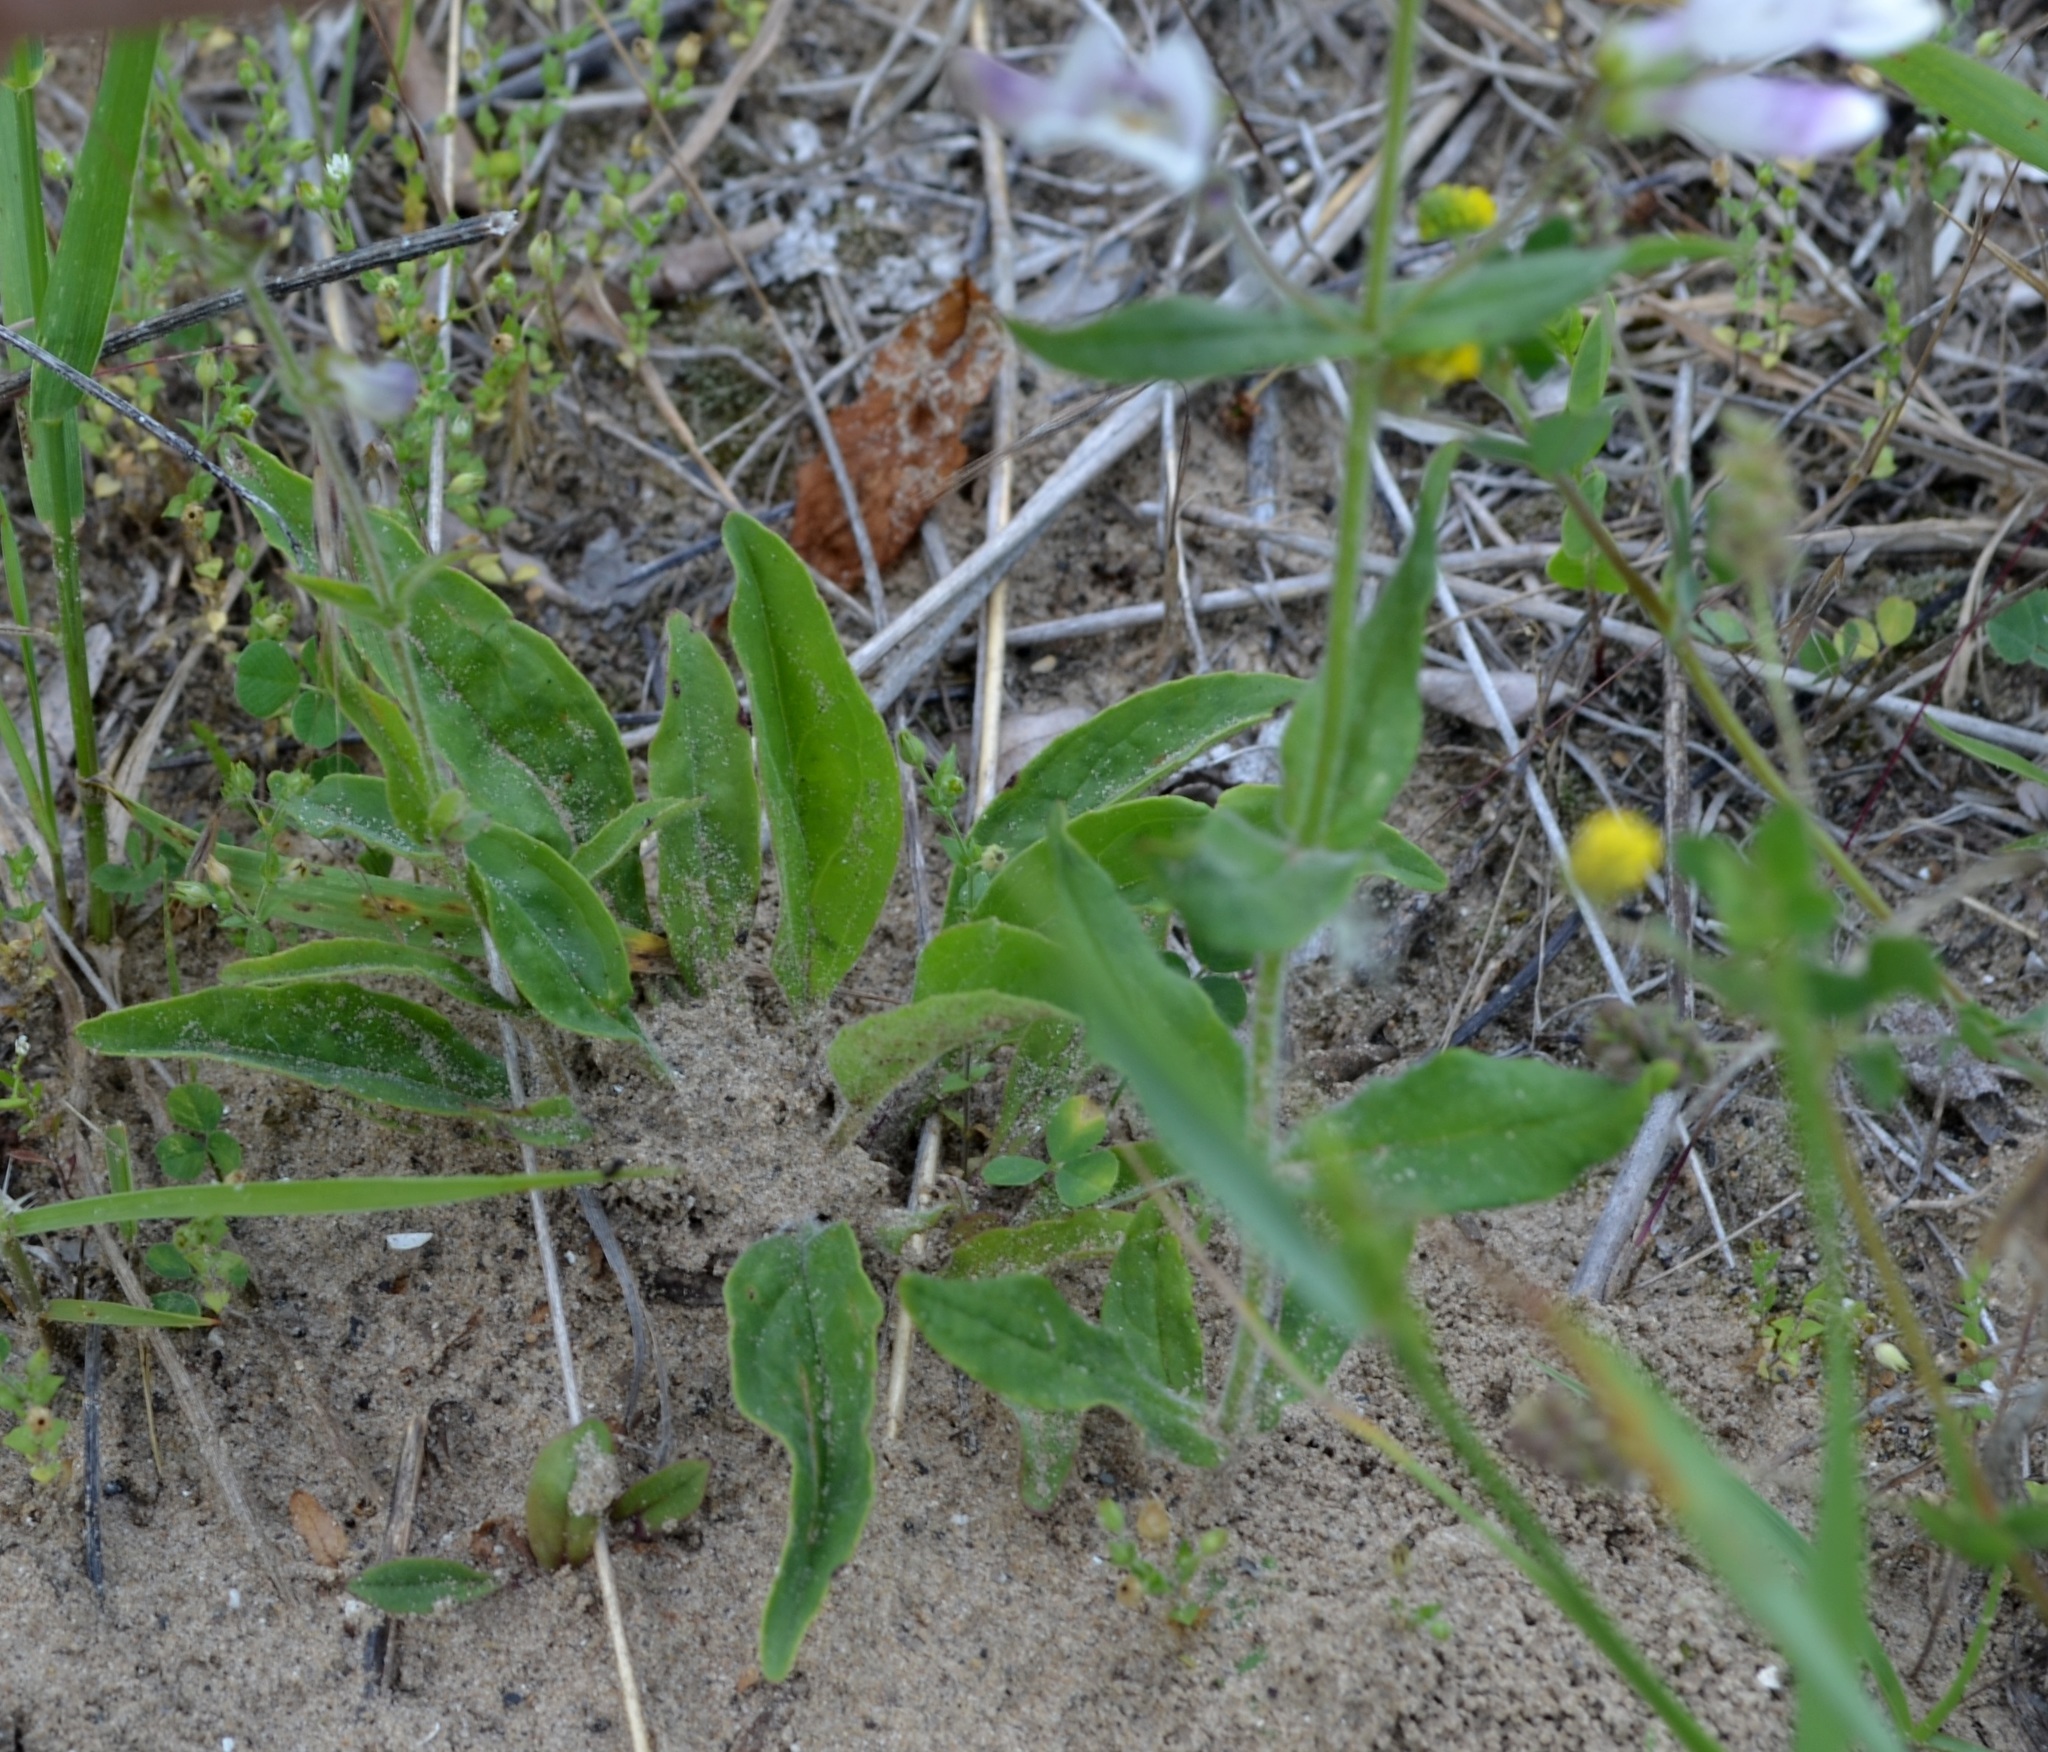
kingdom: Plantae
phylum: Tracheophyta
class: Magnoliopsida
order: Lamiales
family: Plantaginaceae
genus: Penstemon
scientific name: Penstemon hirsutus
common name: Hairy beardtongue
